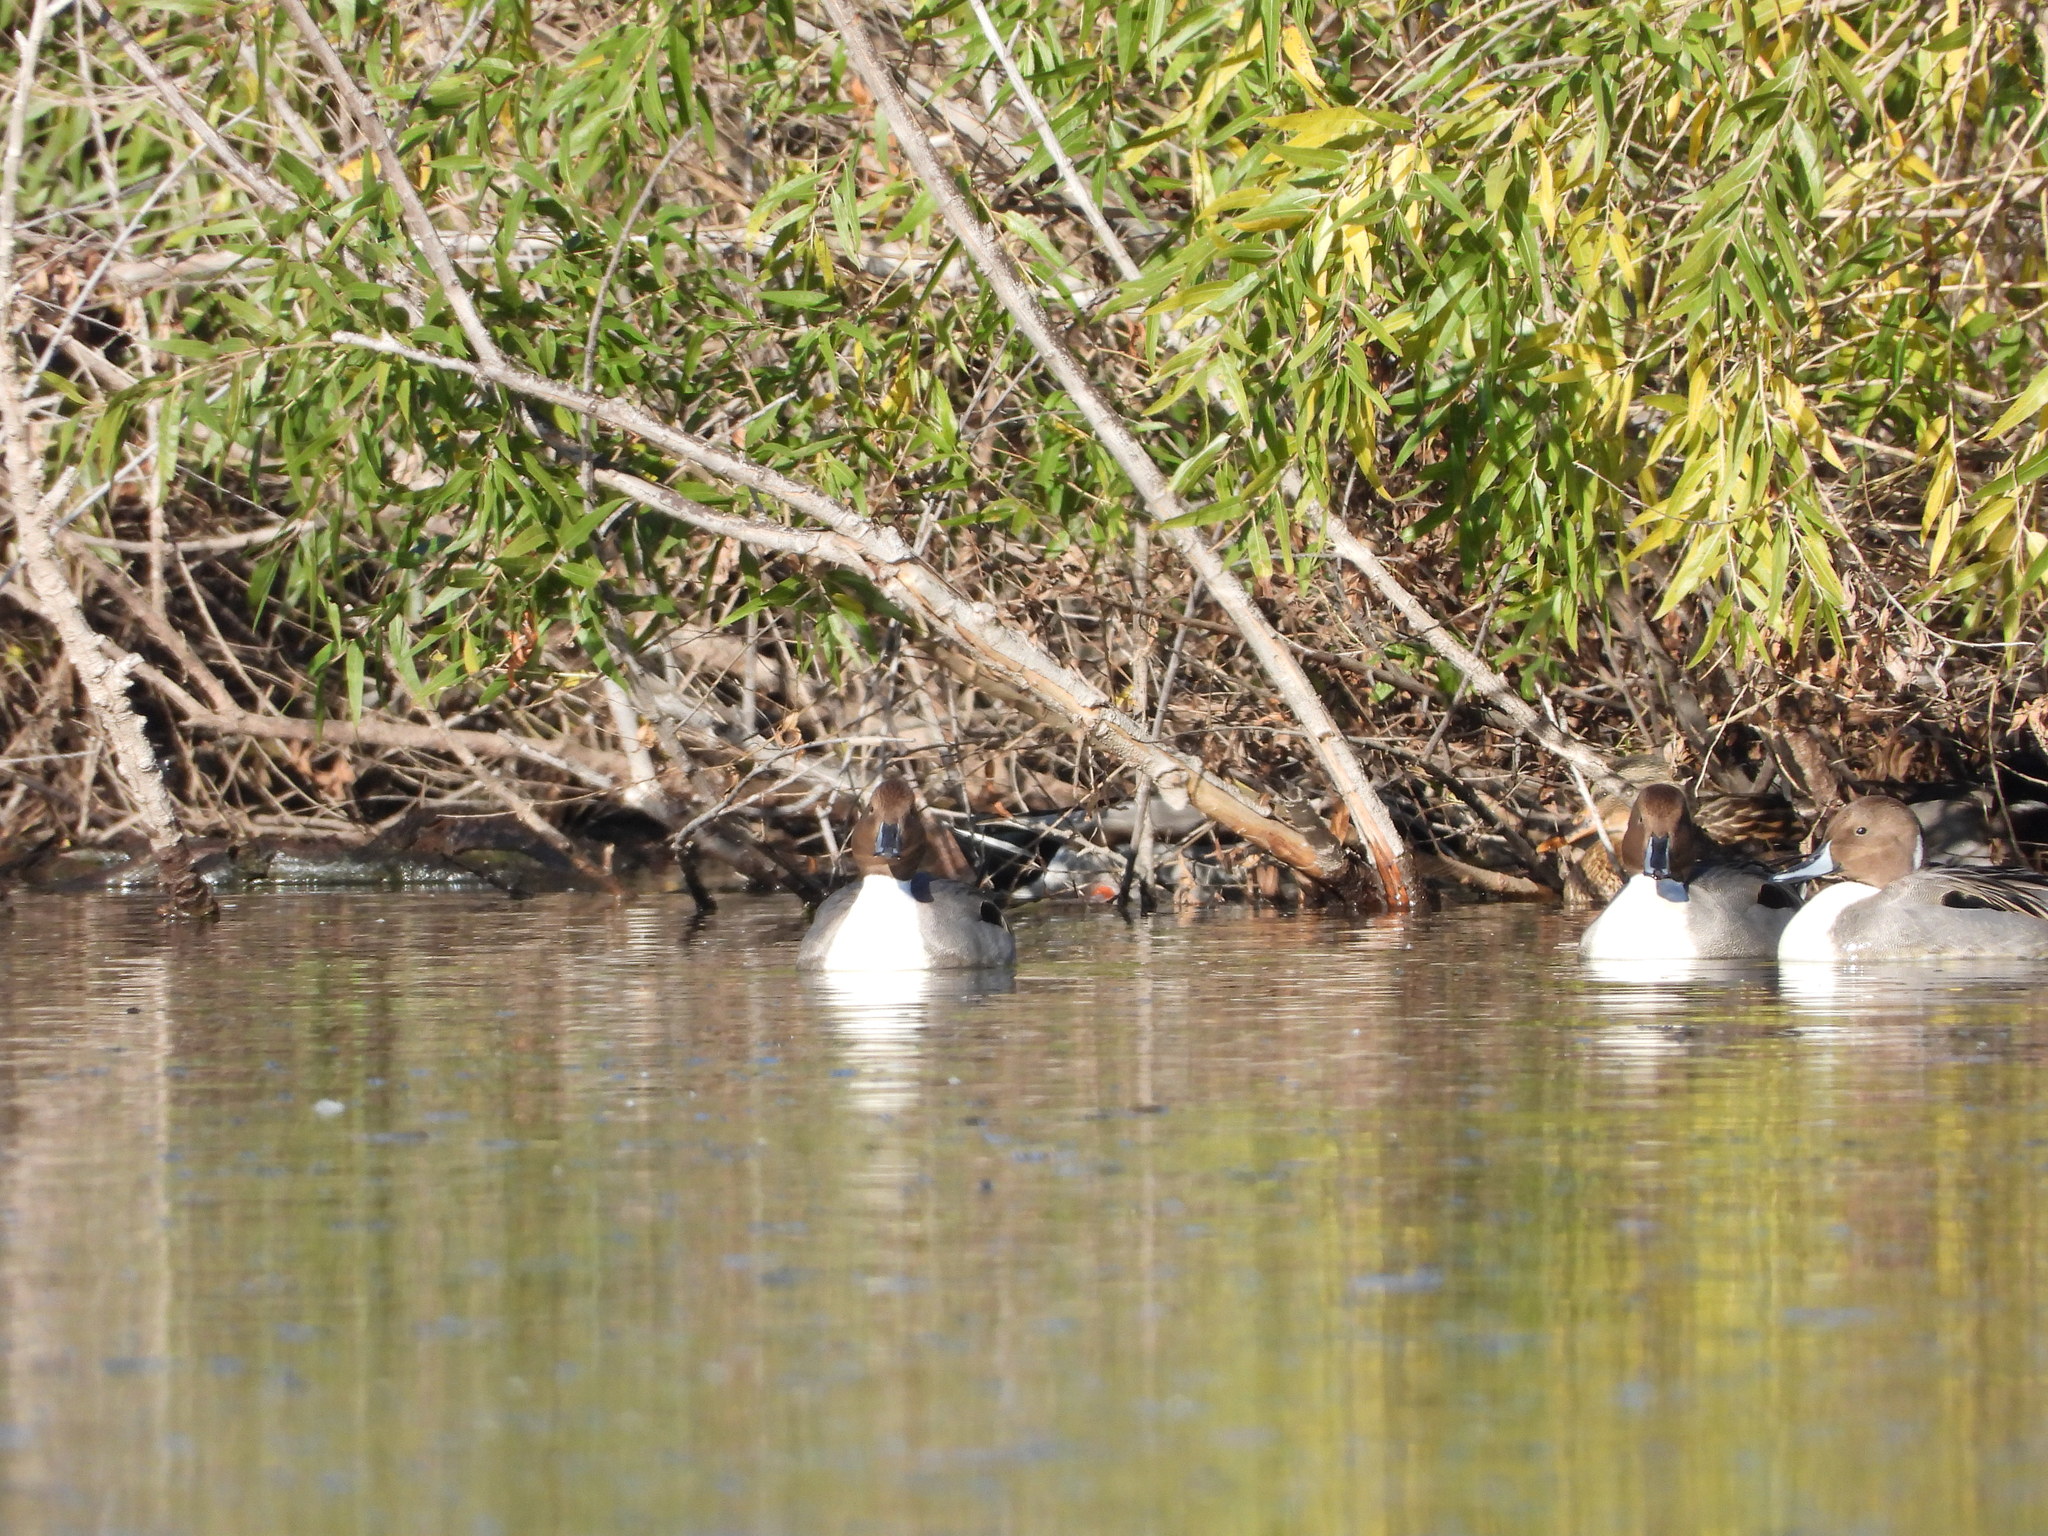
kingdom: Animalia
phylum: Chordata
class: Aves
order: Anseriformes
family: Anatidae
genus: Anas
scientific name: Anas acuta
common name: Northern pintail
